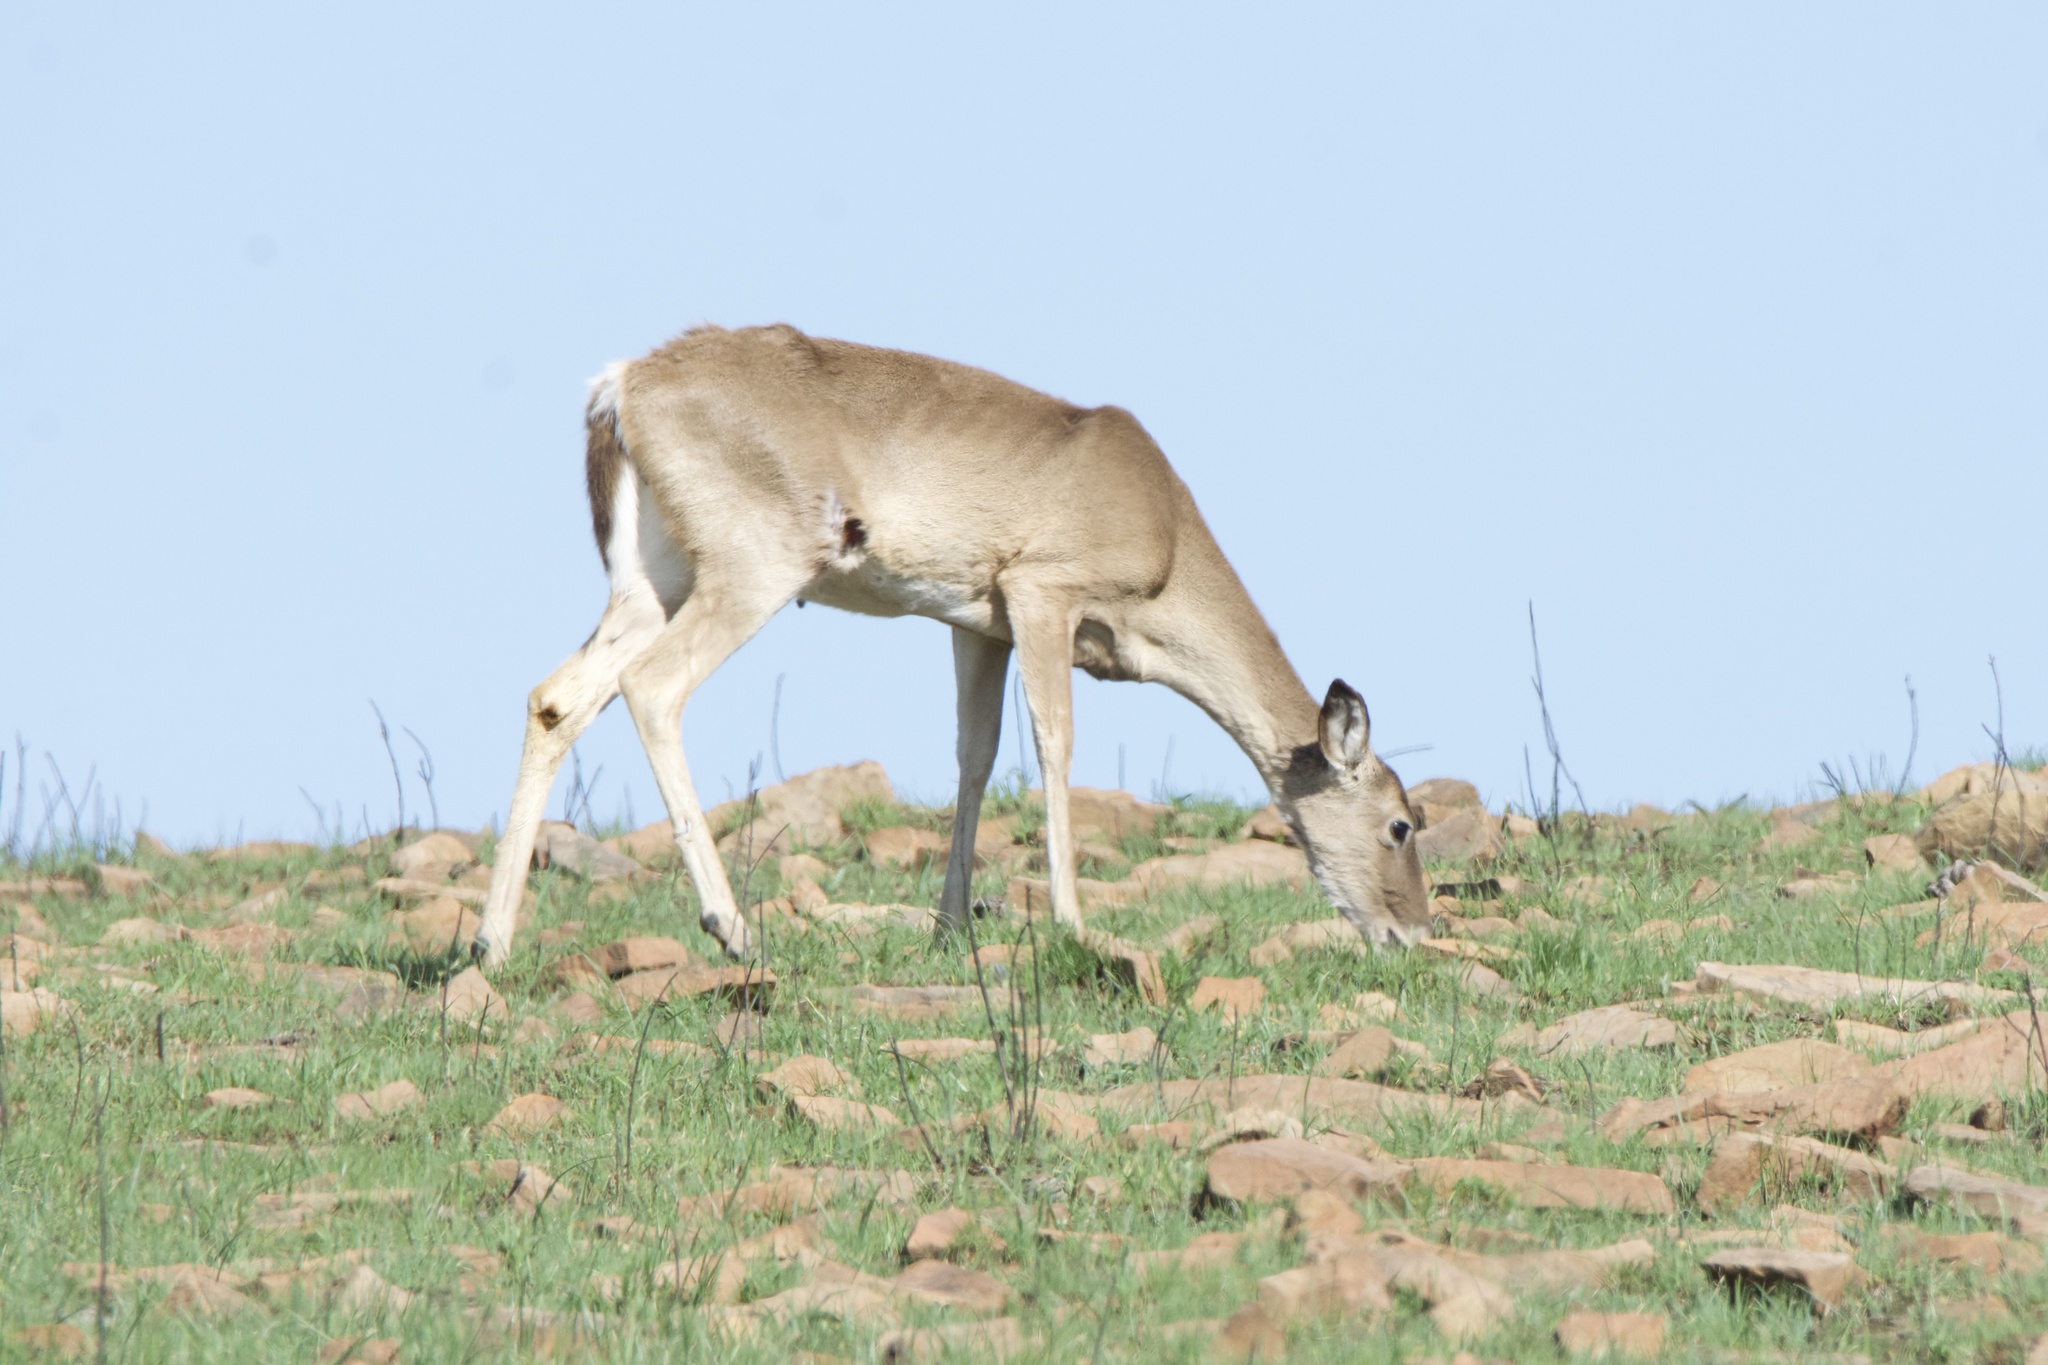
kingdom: Animalia
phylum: Chordata
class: Mammalia
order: Artiodactyla
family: Cervidae
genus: Odocoileus
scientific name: Odocoileus virginianus
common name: White-tailed deer
